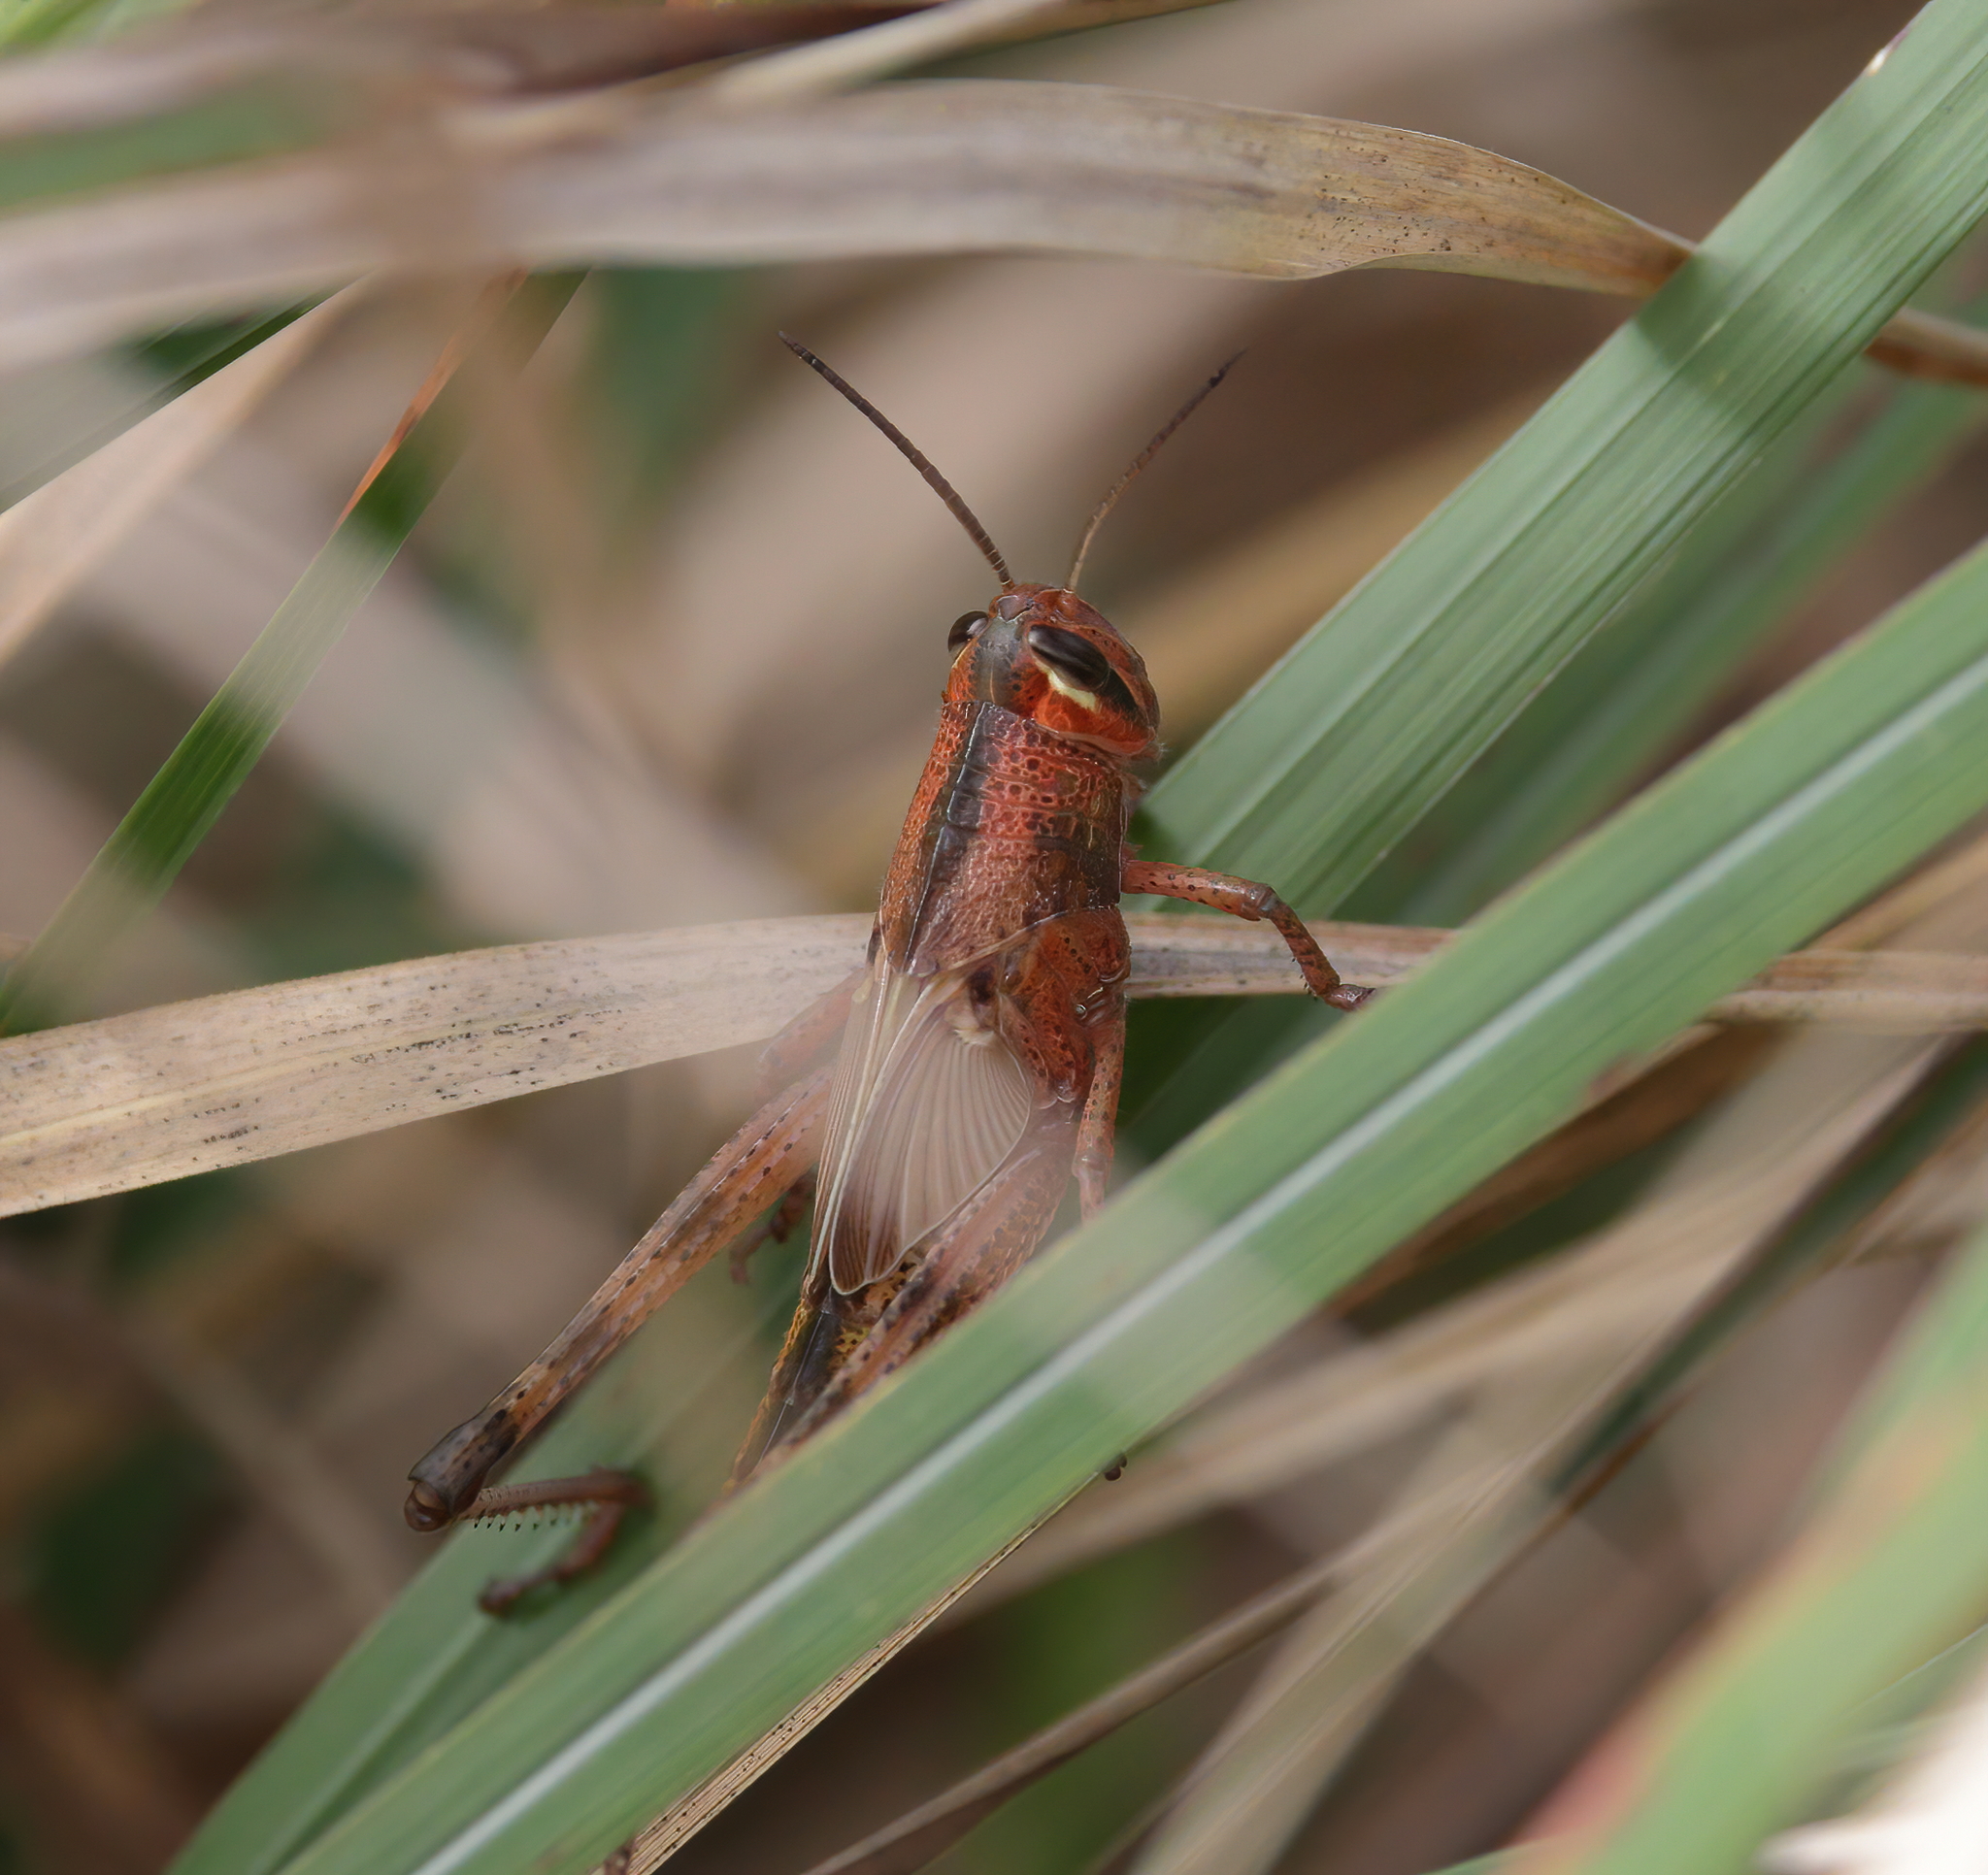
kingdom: Animalia
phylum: Arthropoda
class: Insecta
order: Orthoptera
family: Acrididae
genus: Schistocerca
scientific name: Schistocerca americana
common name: American bird locust
